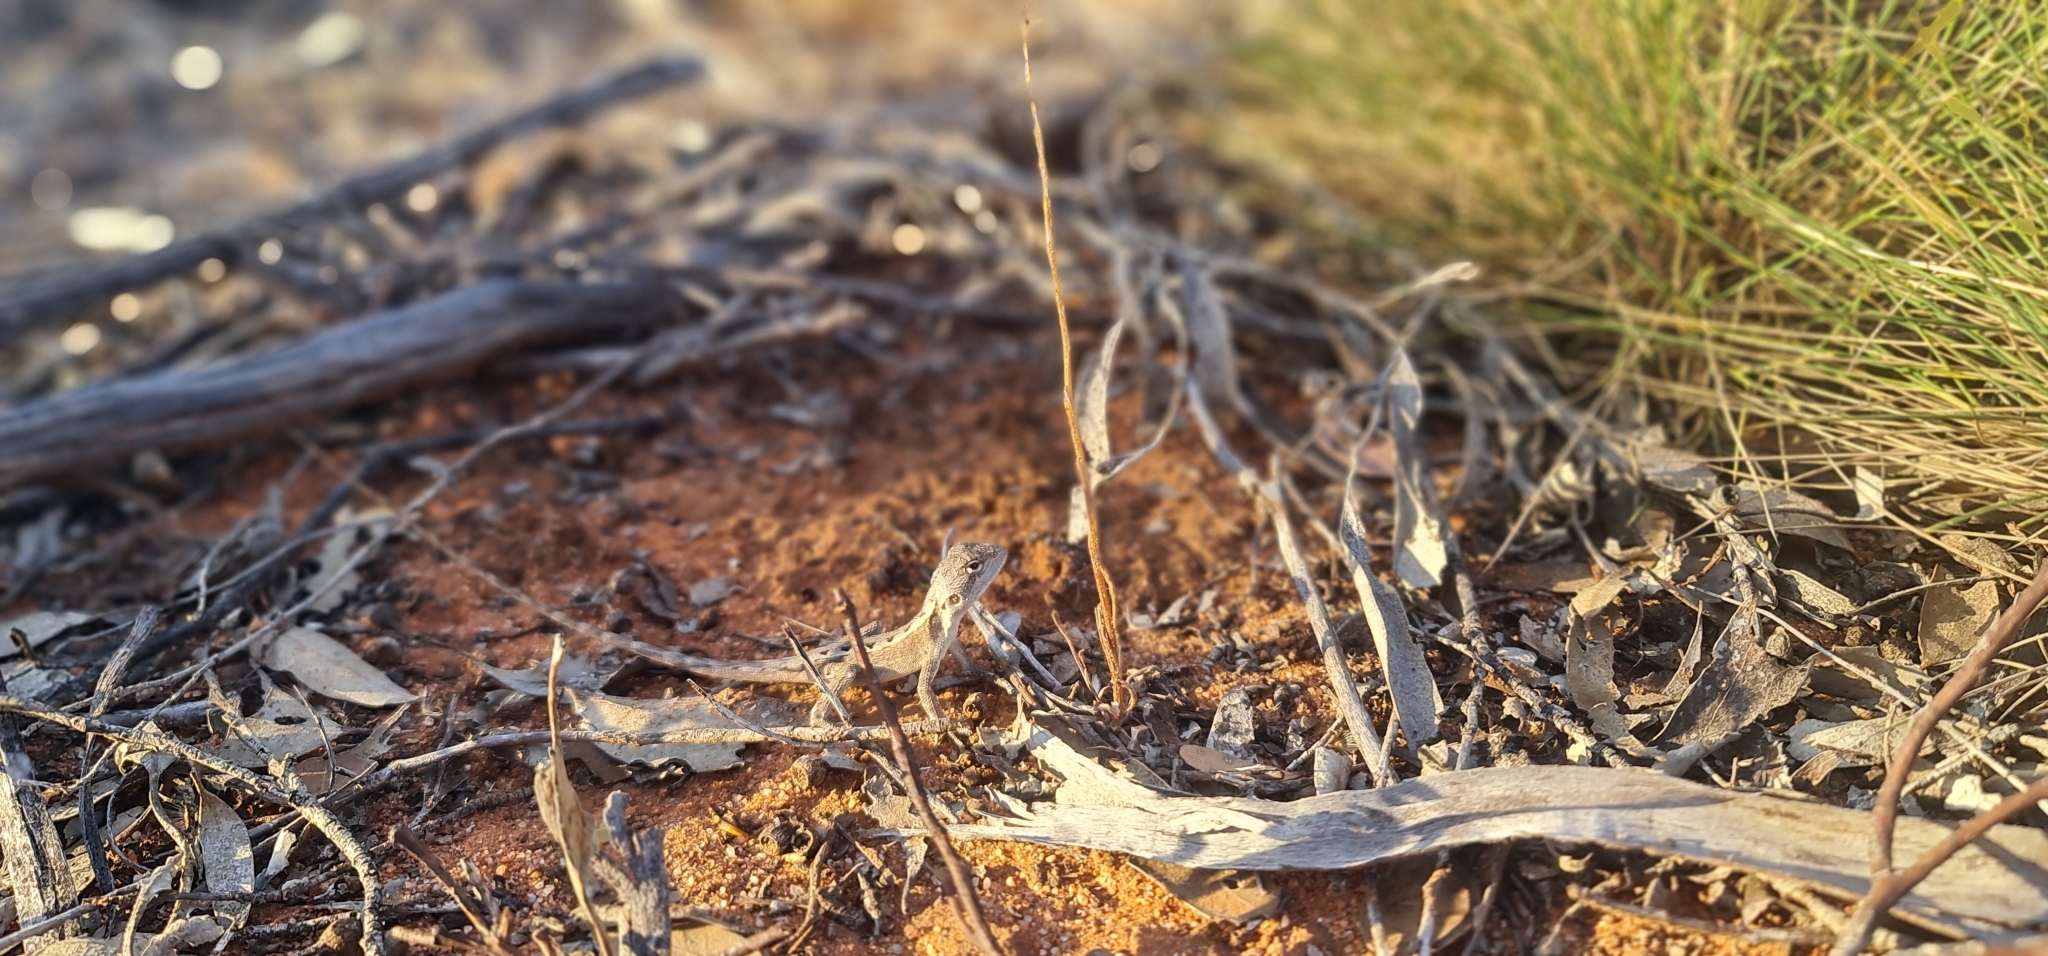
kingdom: Animalia
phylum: Chordata
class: Squamata
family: Agamidae
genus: Diporiphora
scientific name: Diporiphora nobbi
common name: Nobbi
